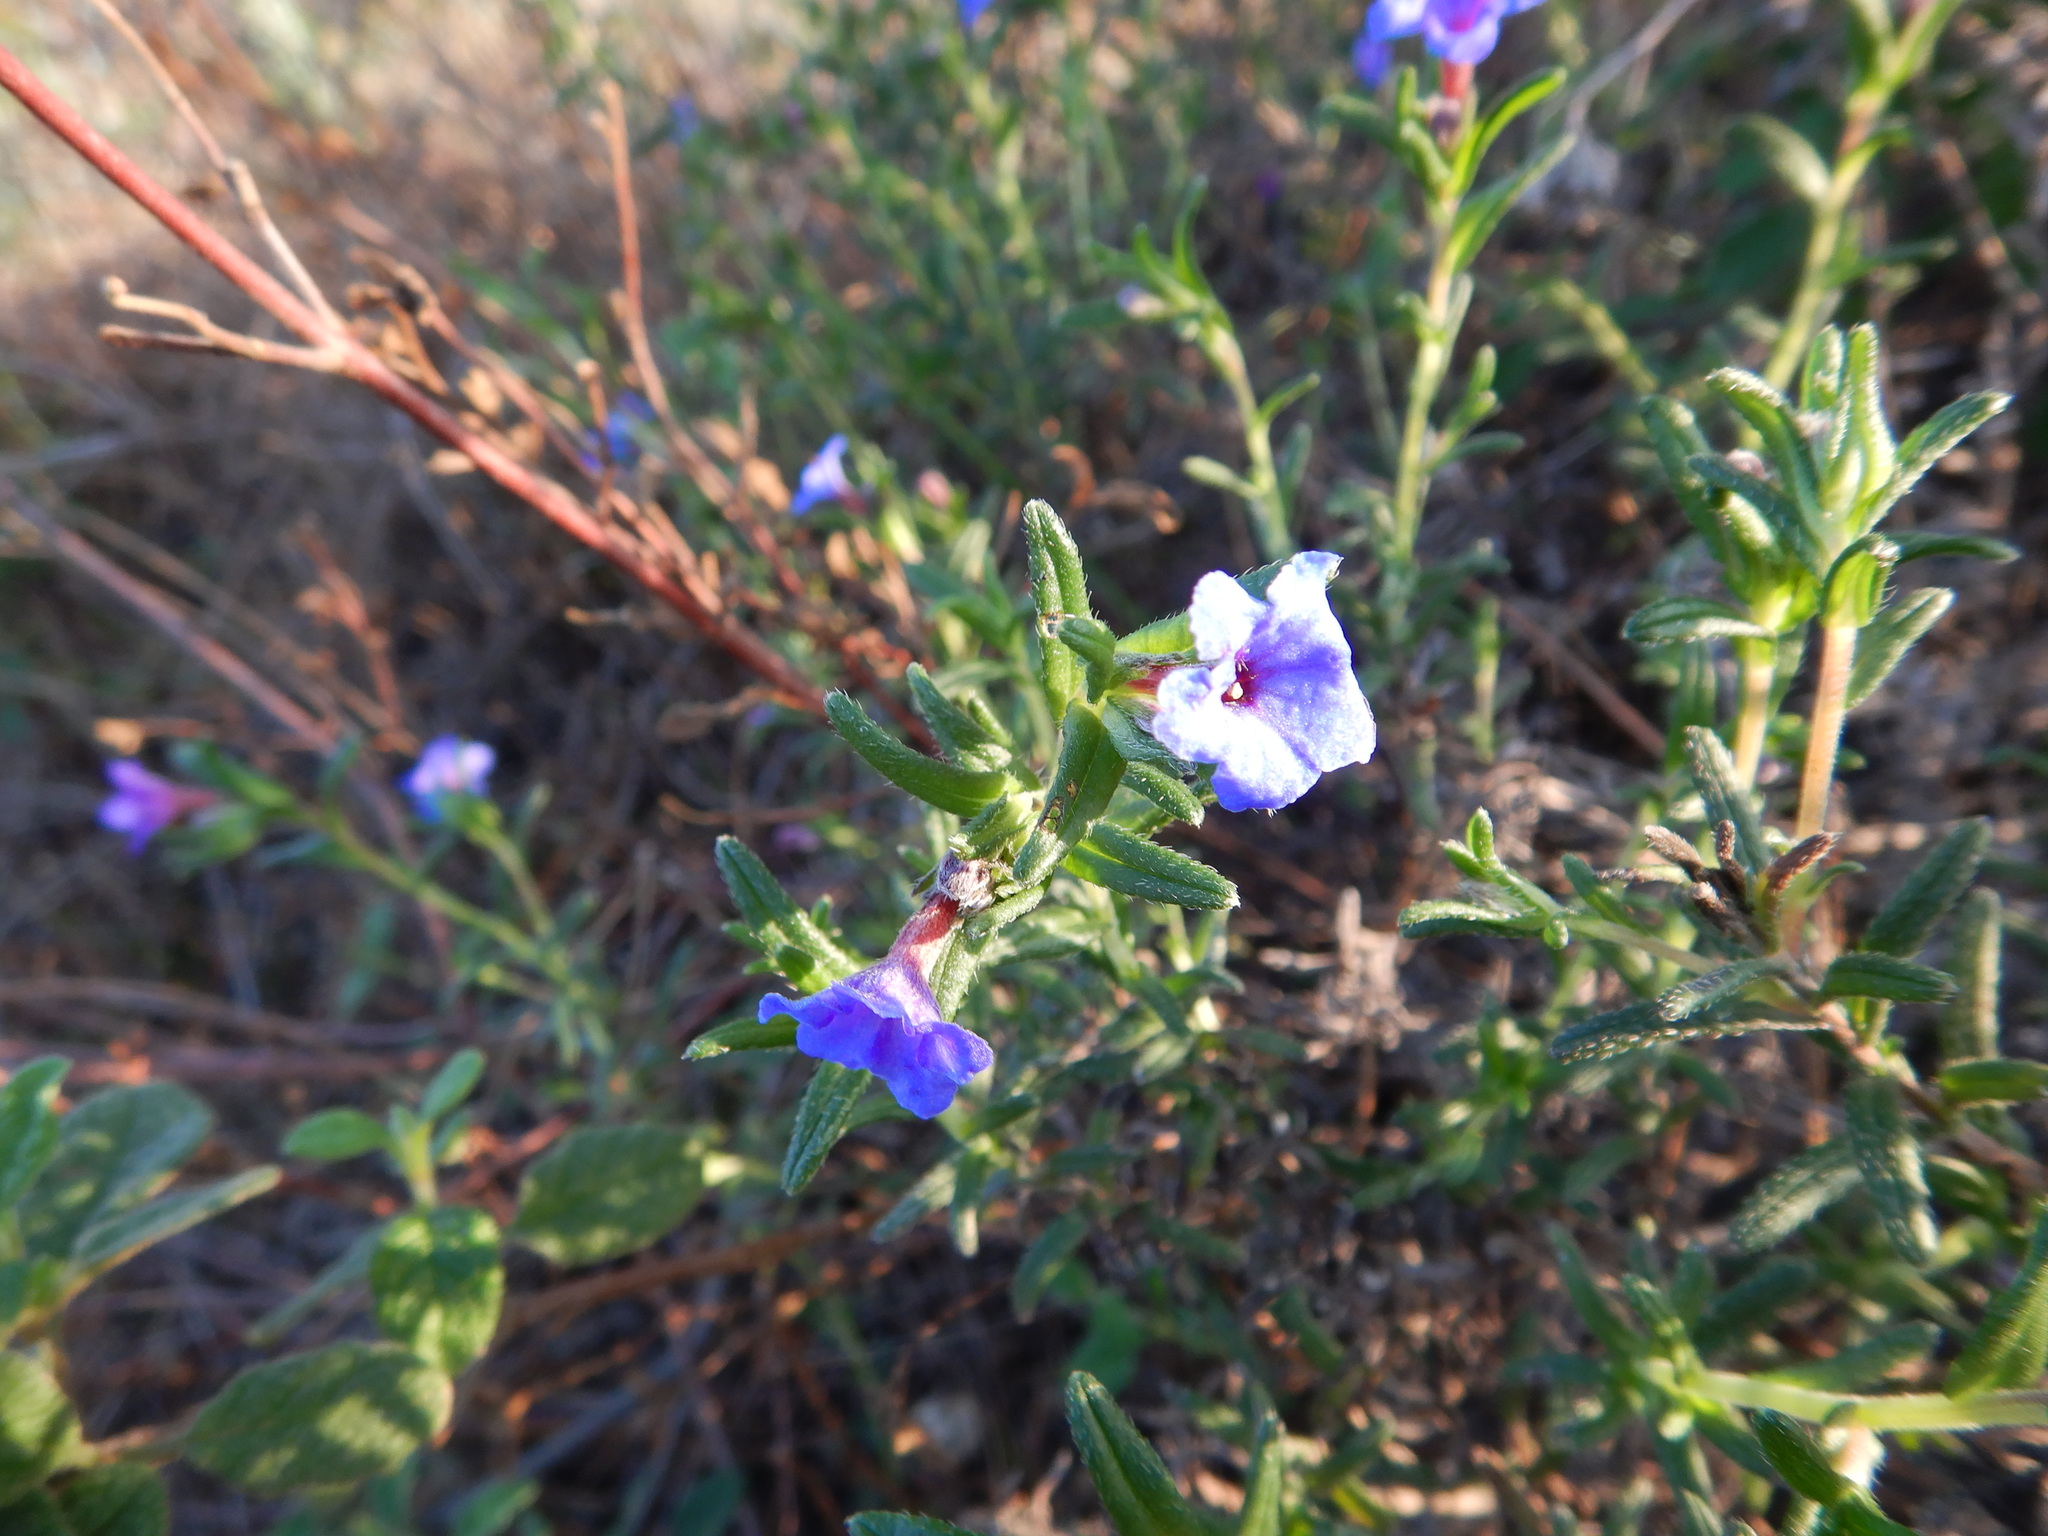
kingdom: Plantae
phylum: Tracheophyta
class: Magnoliopsida
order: Boraginales
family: Boraginaceae
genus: Glandora
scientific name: Glandora prostrata
